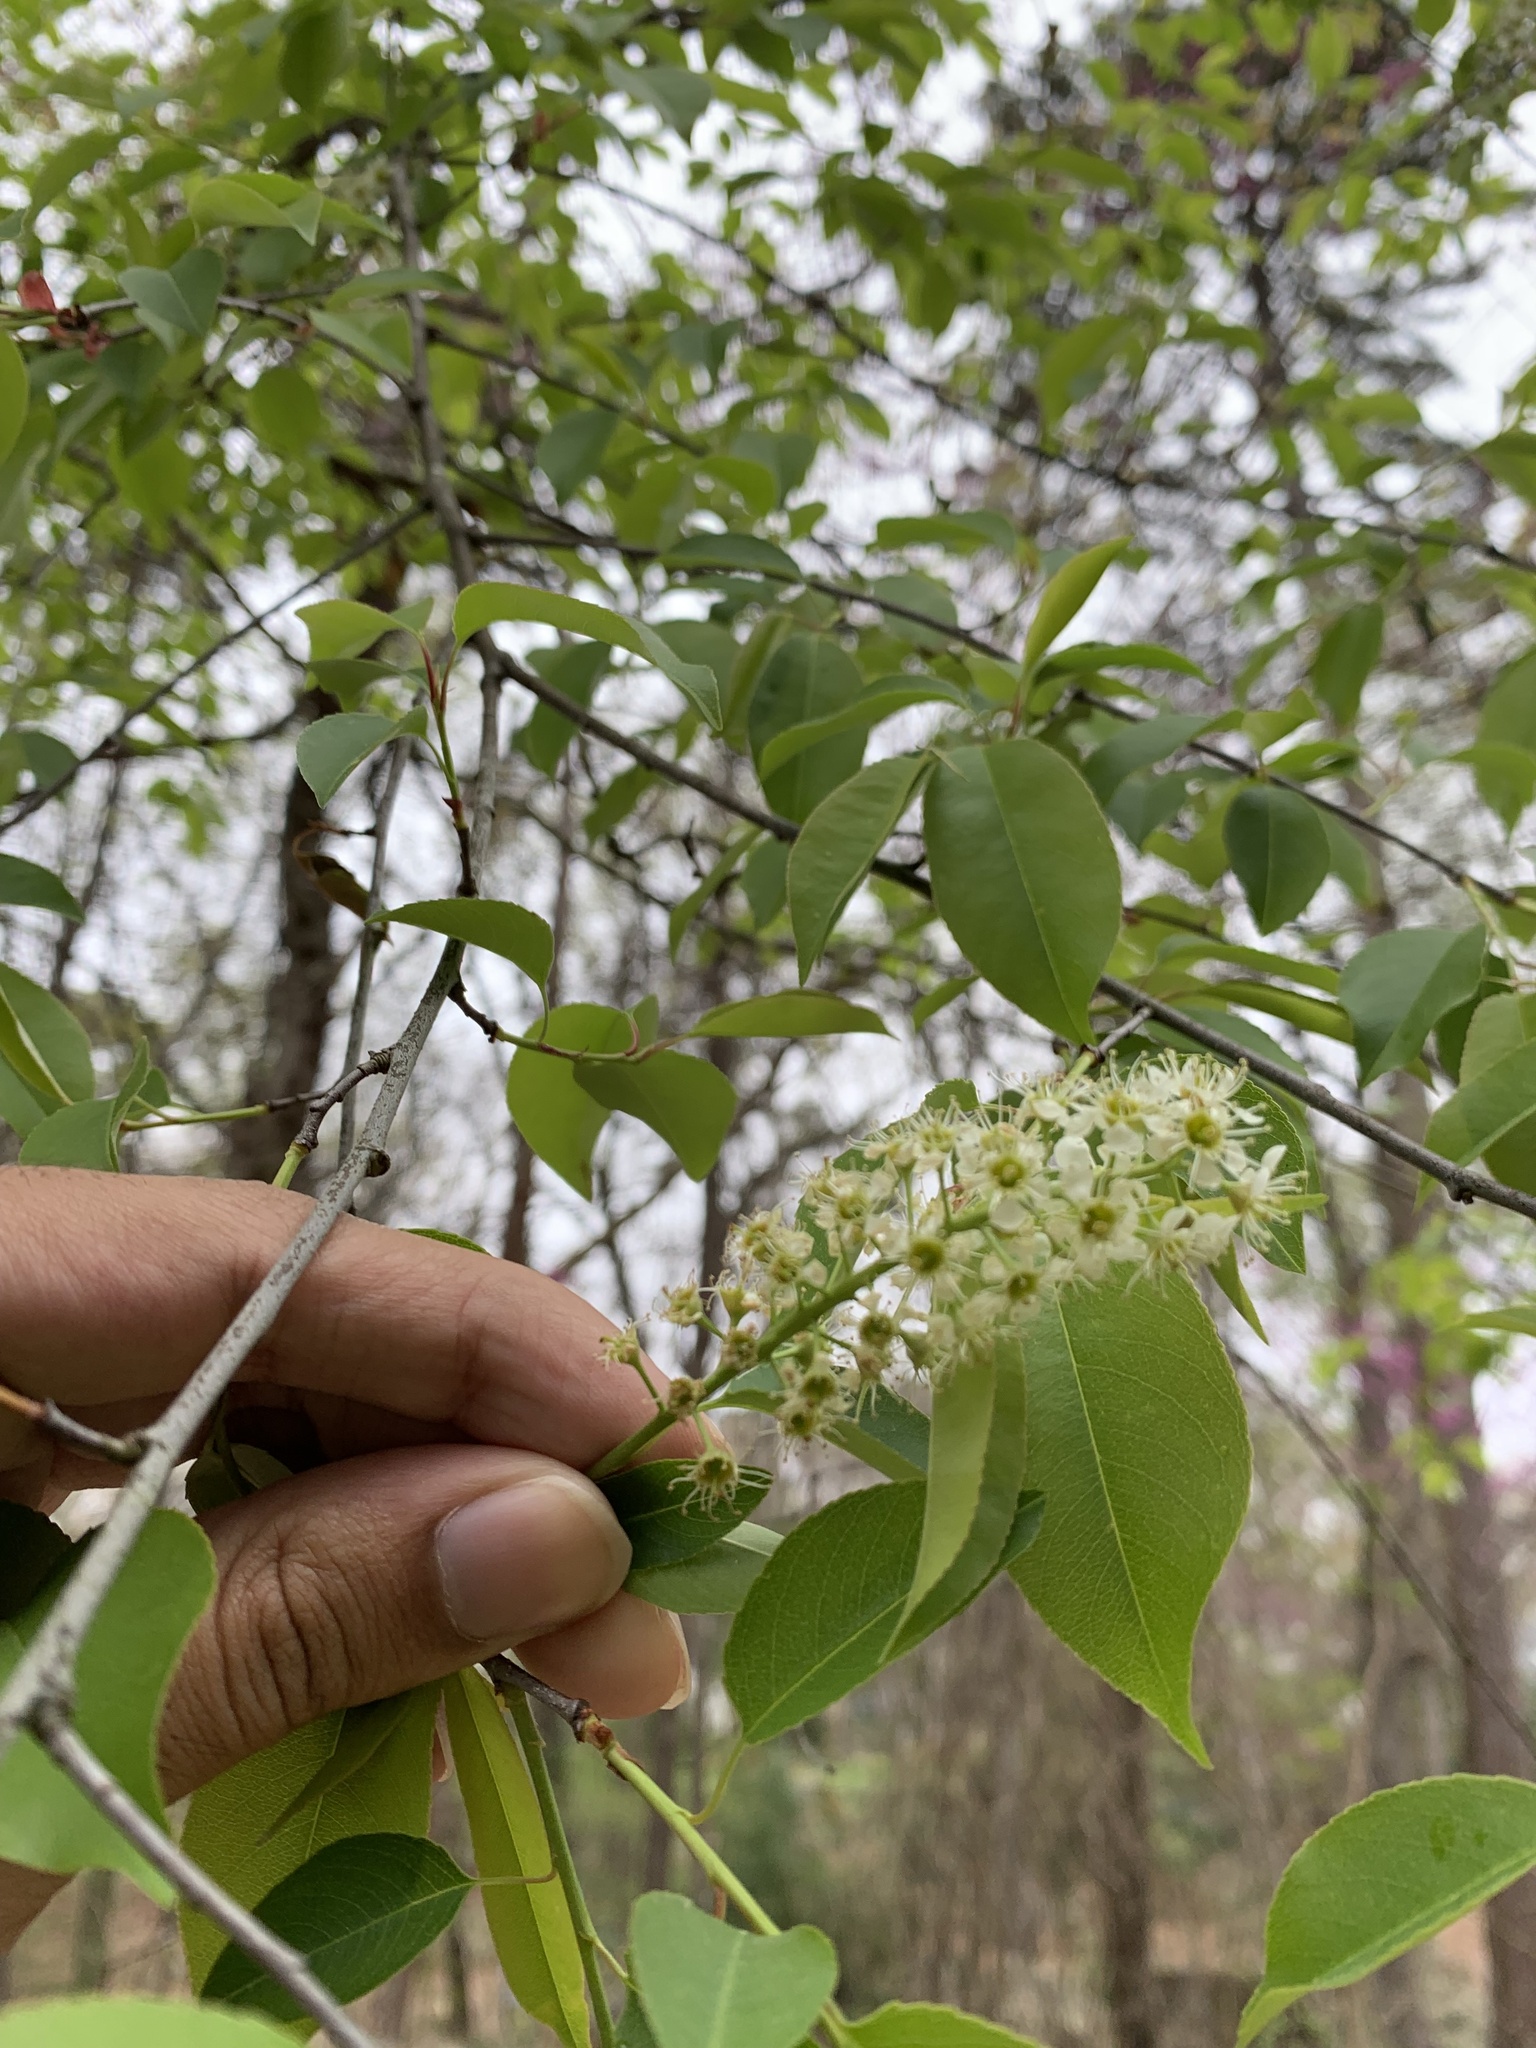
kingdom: Plantae
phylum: Tracheophyta
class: Magnoliopsida
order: Rosales
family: Rosaceae
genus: Prunus
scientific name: Prunus serotina
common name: Black cherry
